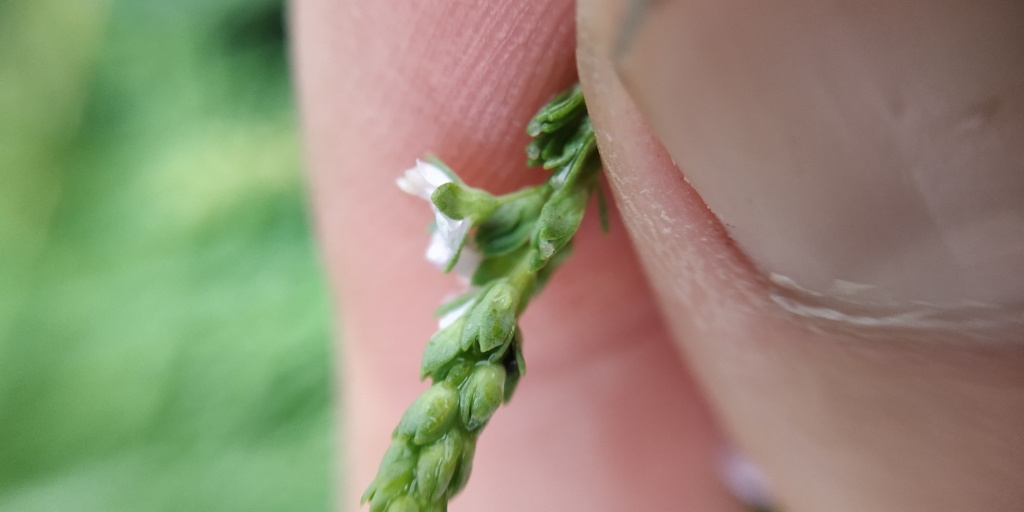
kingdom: Plantae
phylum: Tracheophyta
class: Magnoliopsida
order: Lamiales
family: Plantaginaceae
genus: Veronica
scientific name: Veronica anagallis-aquatica
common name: Water speedwell
